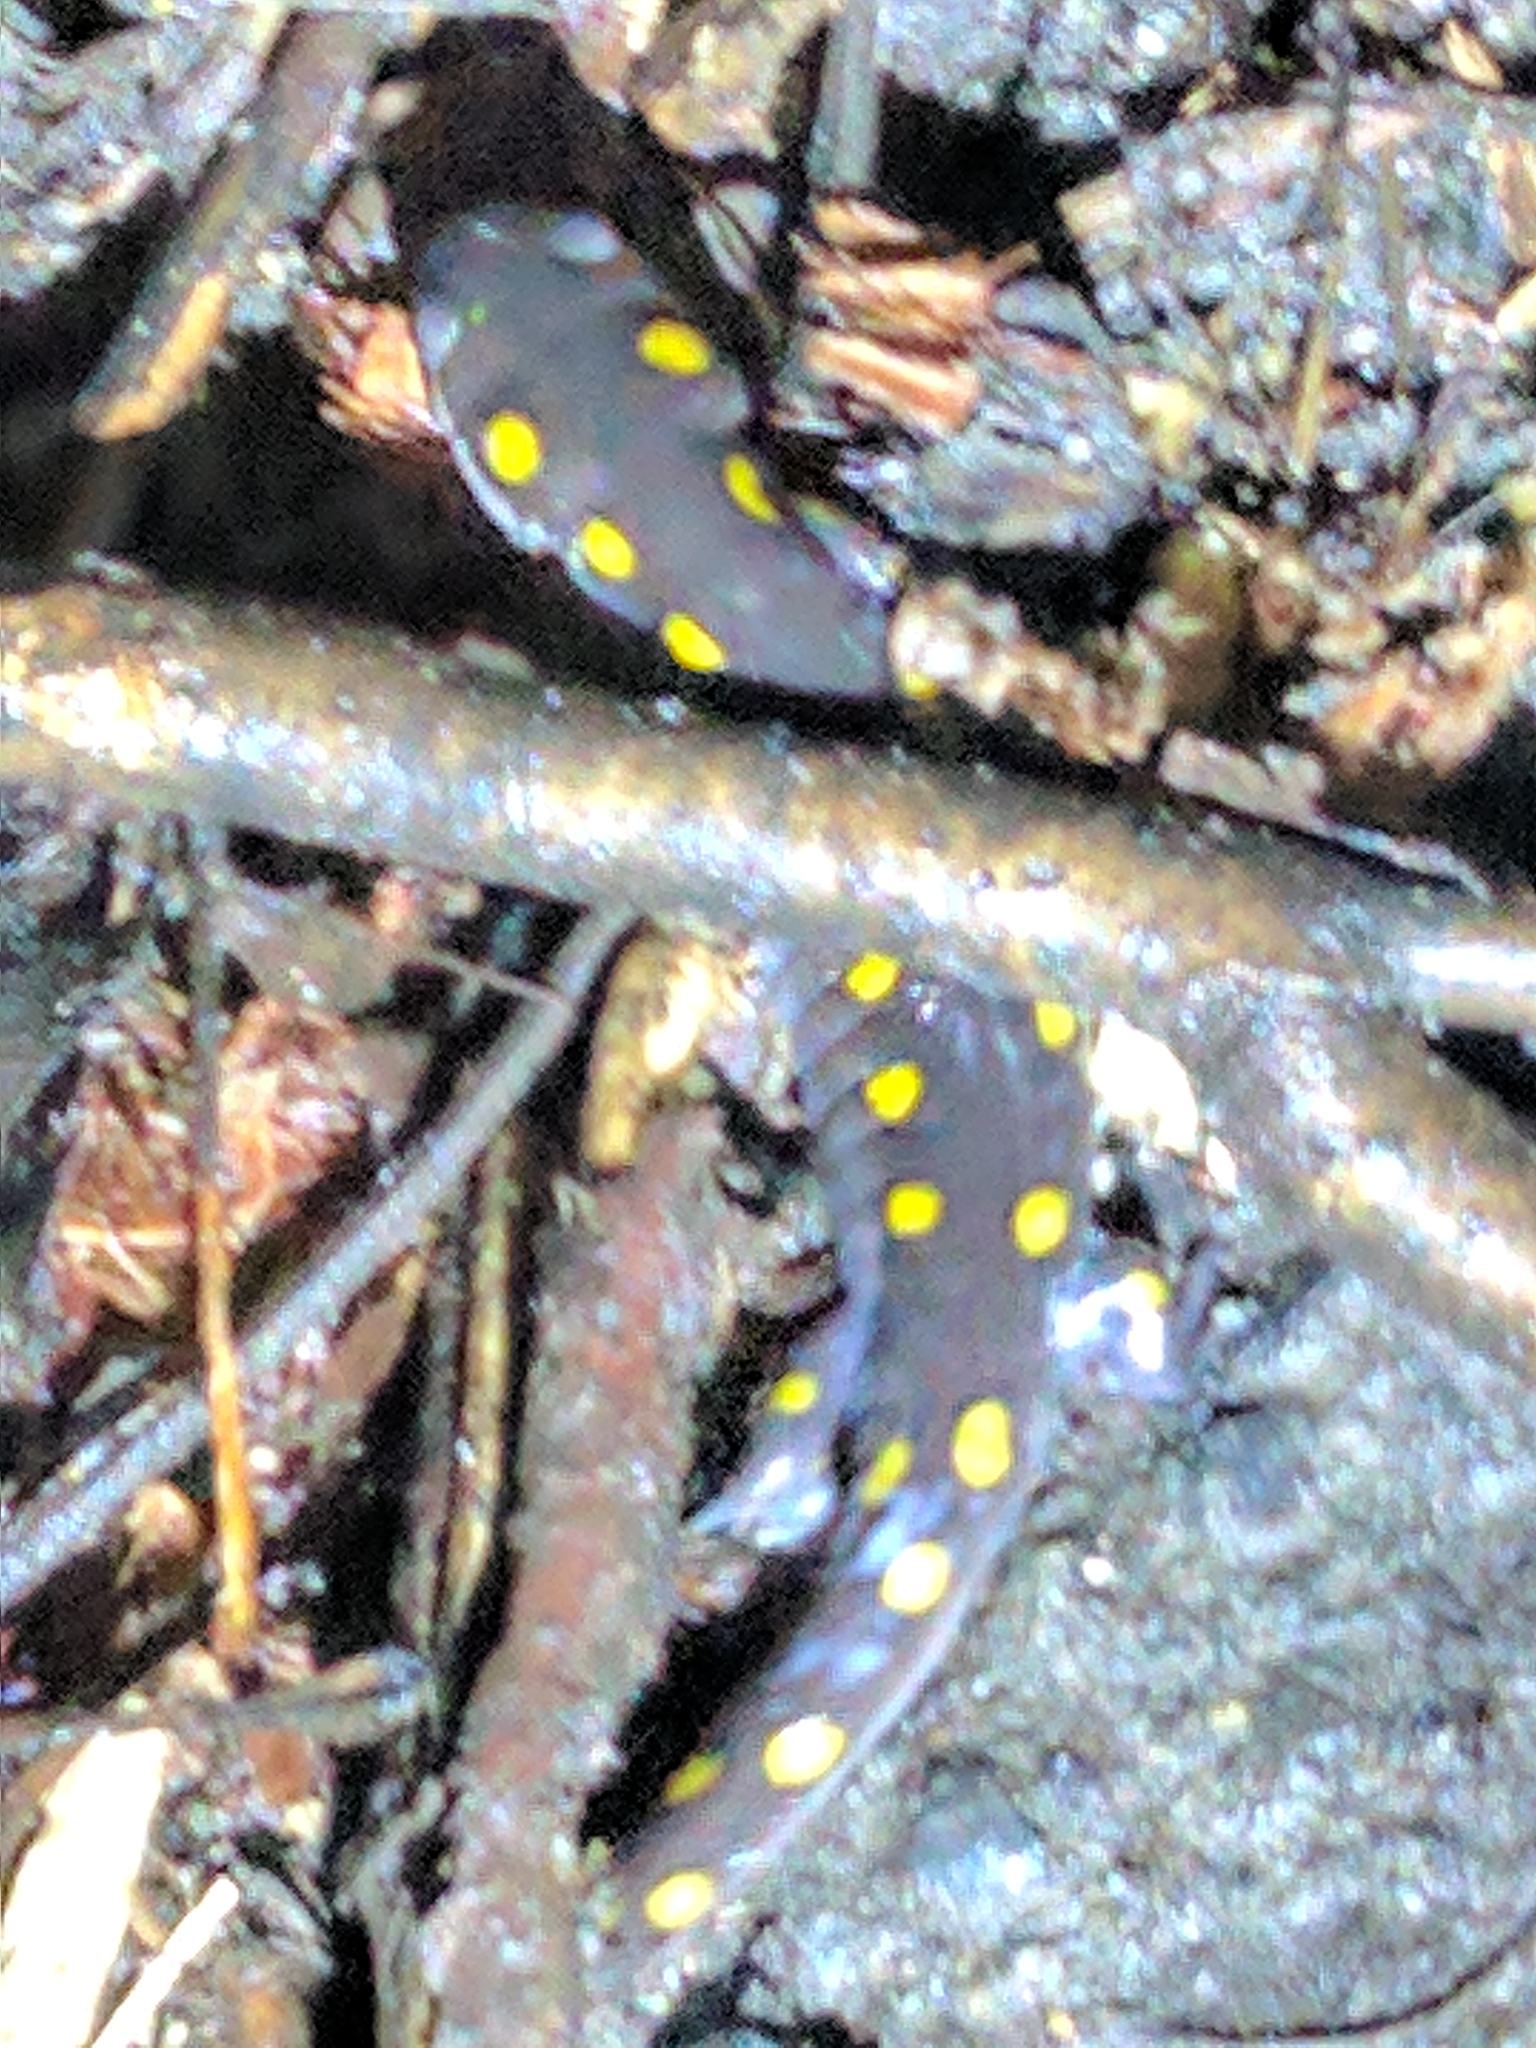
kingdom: Animalia
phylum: Chordata
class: Amphibia
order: Caudata
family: Ambystomatidae
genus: Ambystoma
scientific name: Ambystoma maculatum
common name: Spotted salamander
